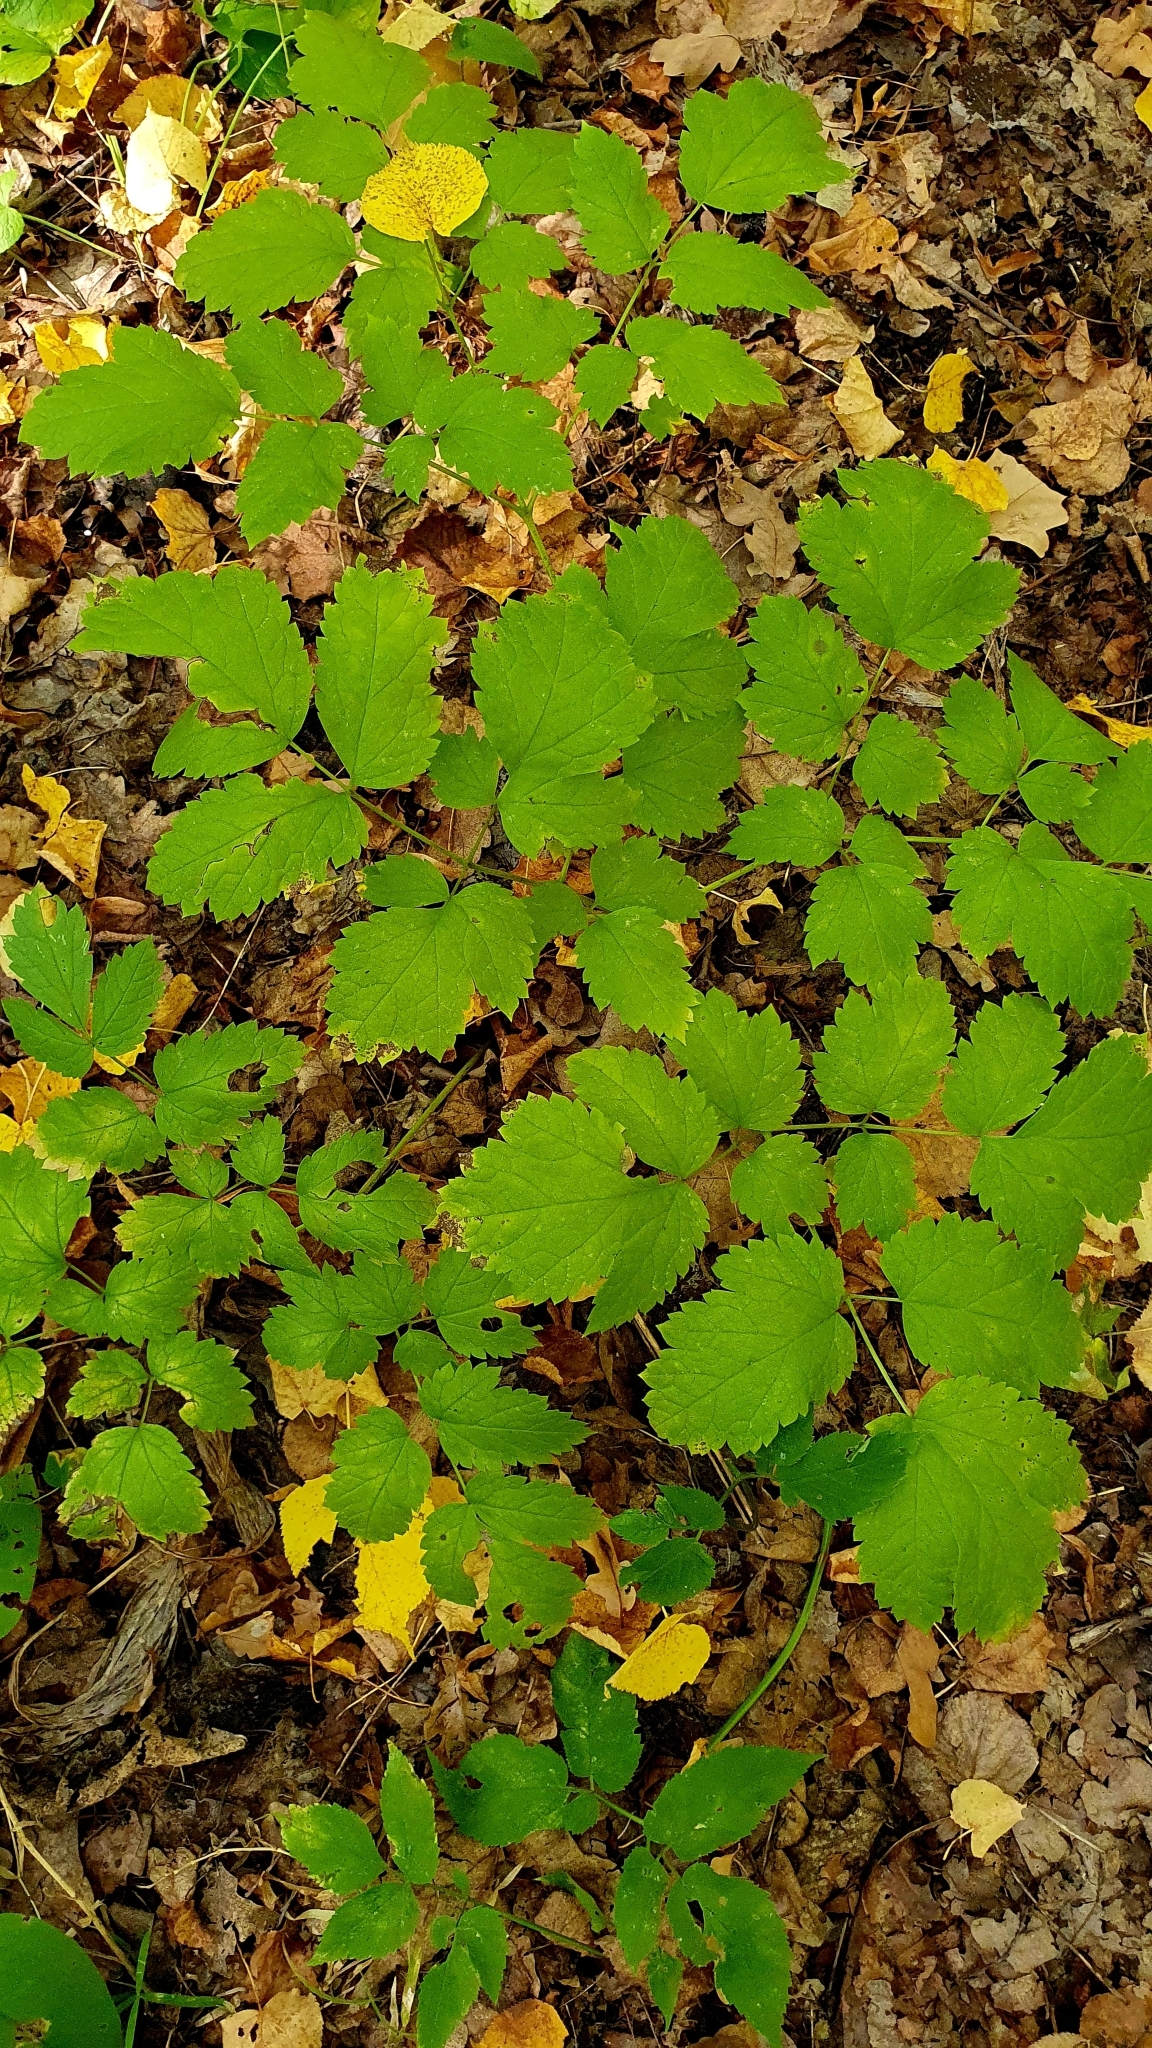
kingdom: Plantae
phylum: Tracheophyta
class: Magnoliopsida
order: Ranunculales
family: Ranunculaceae
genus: Actaea
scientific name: Actaea spicata
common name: Baneberry
